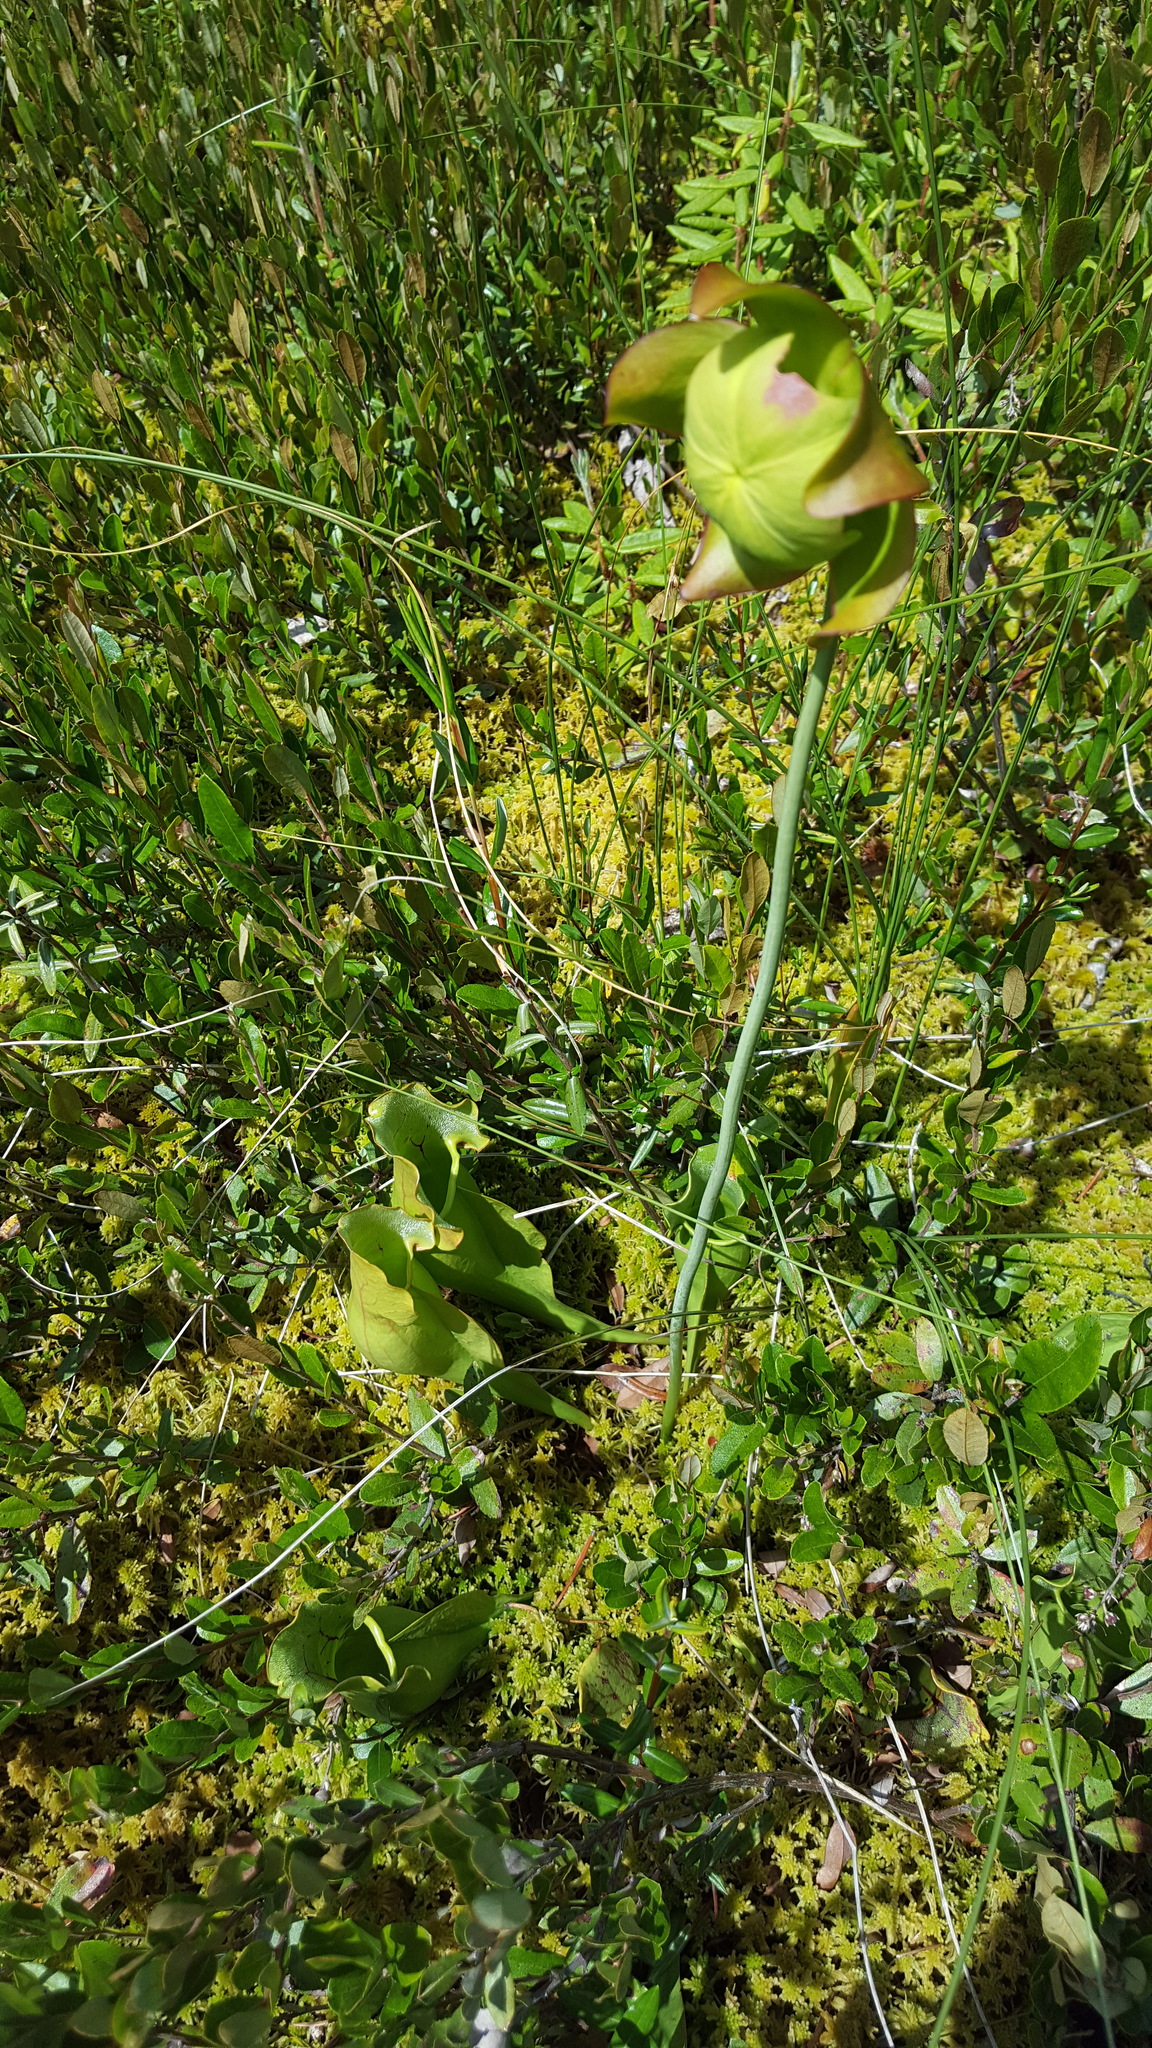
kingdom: Plantae
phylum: Tracheophyta
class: Magnoliopsida
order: Ericales
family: Sarraceniaceae
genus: Sarracenia
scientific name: Sarracenia purpurea
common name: Pitcherplant
